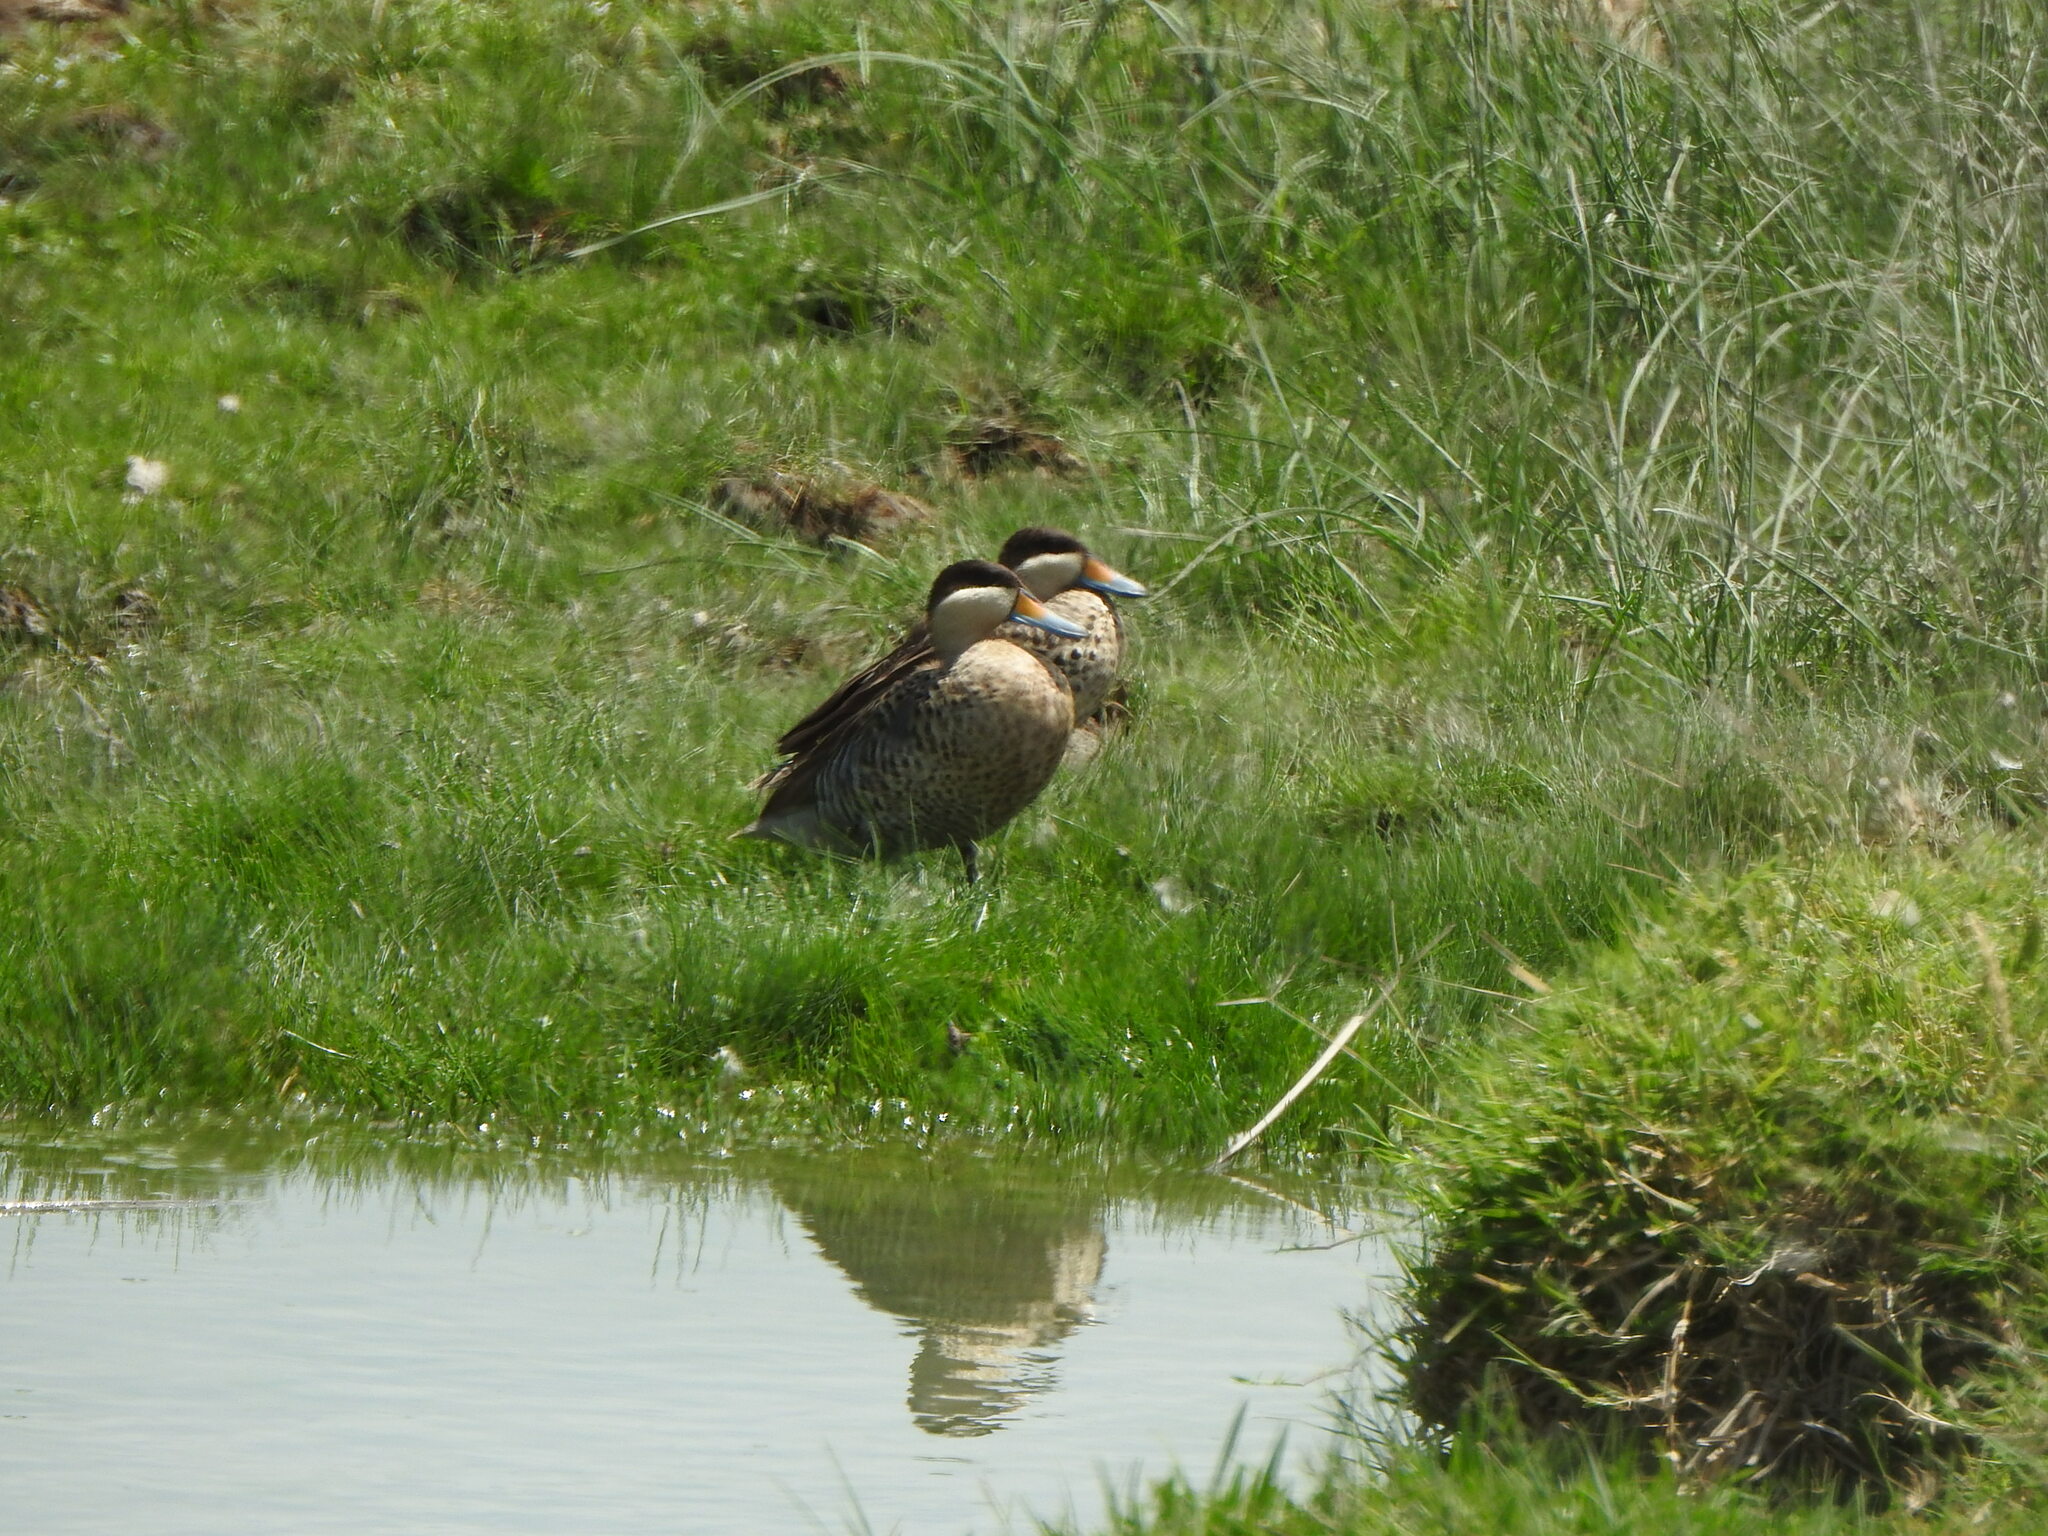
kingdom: Animalia
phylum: Chordata
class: Aves
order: Anseriformes
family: Anatidae
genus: Spatula
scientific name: Spatula versicolor
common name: Silver teal
